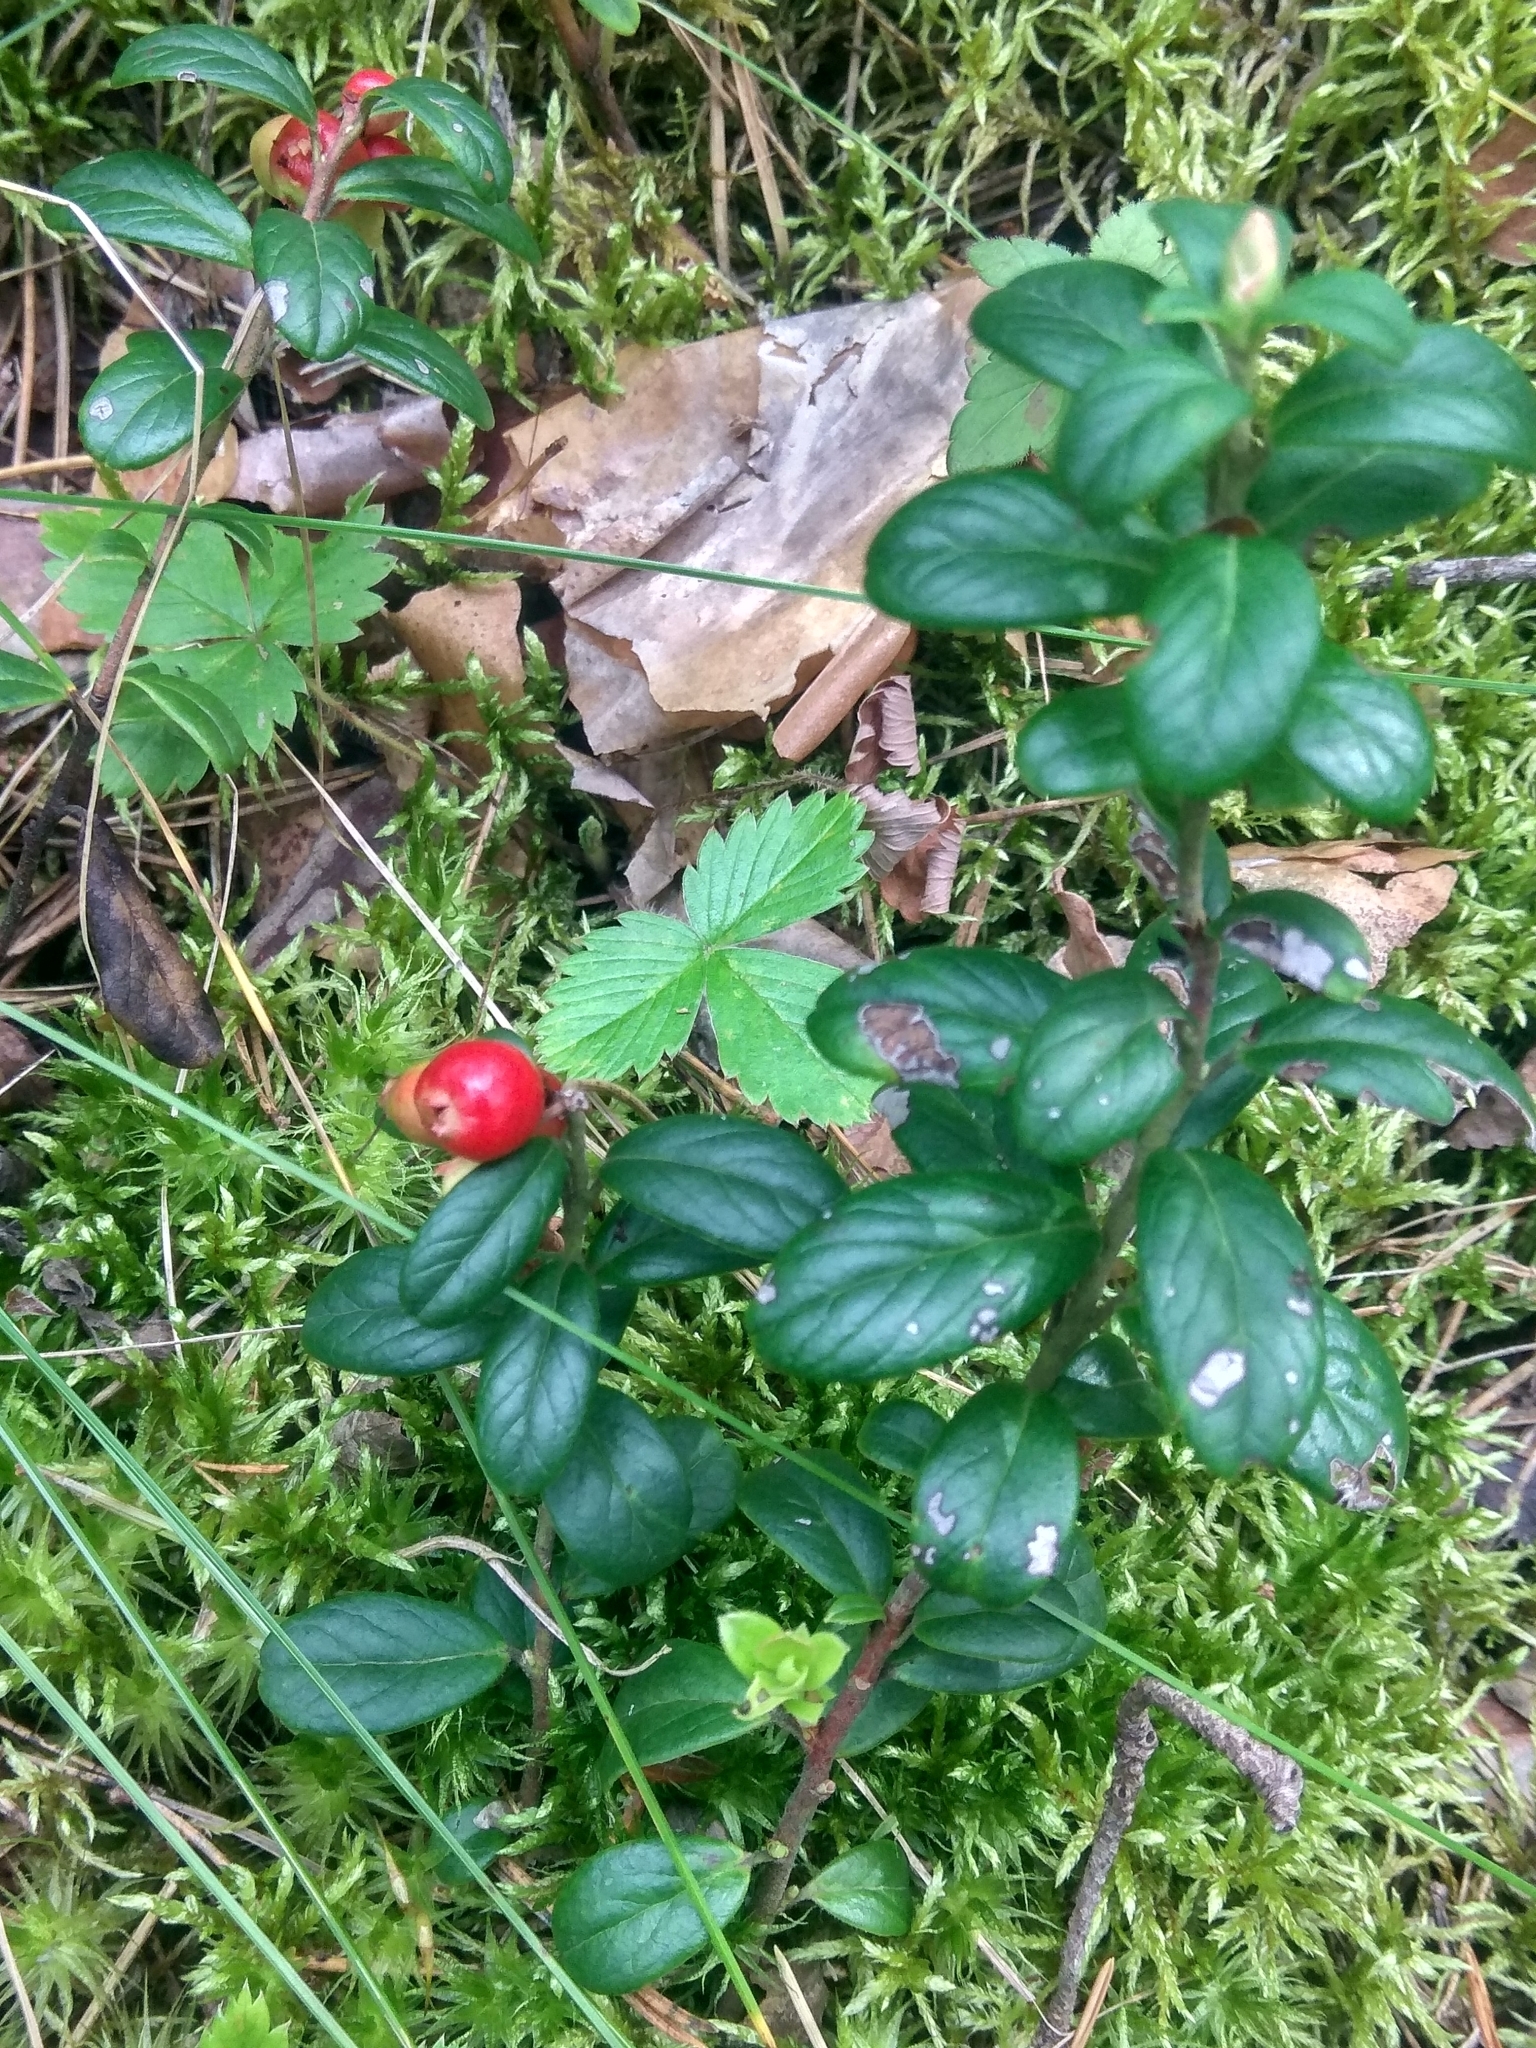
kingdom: Plantae
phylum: Tracheophyta
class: Magnoliopsida
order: Ericales
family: Ericaceae
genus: Vaccinium
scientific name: Vaccinium vitis-idaea
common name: Cowberry
